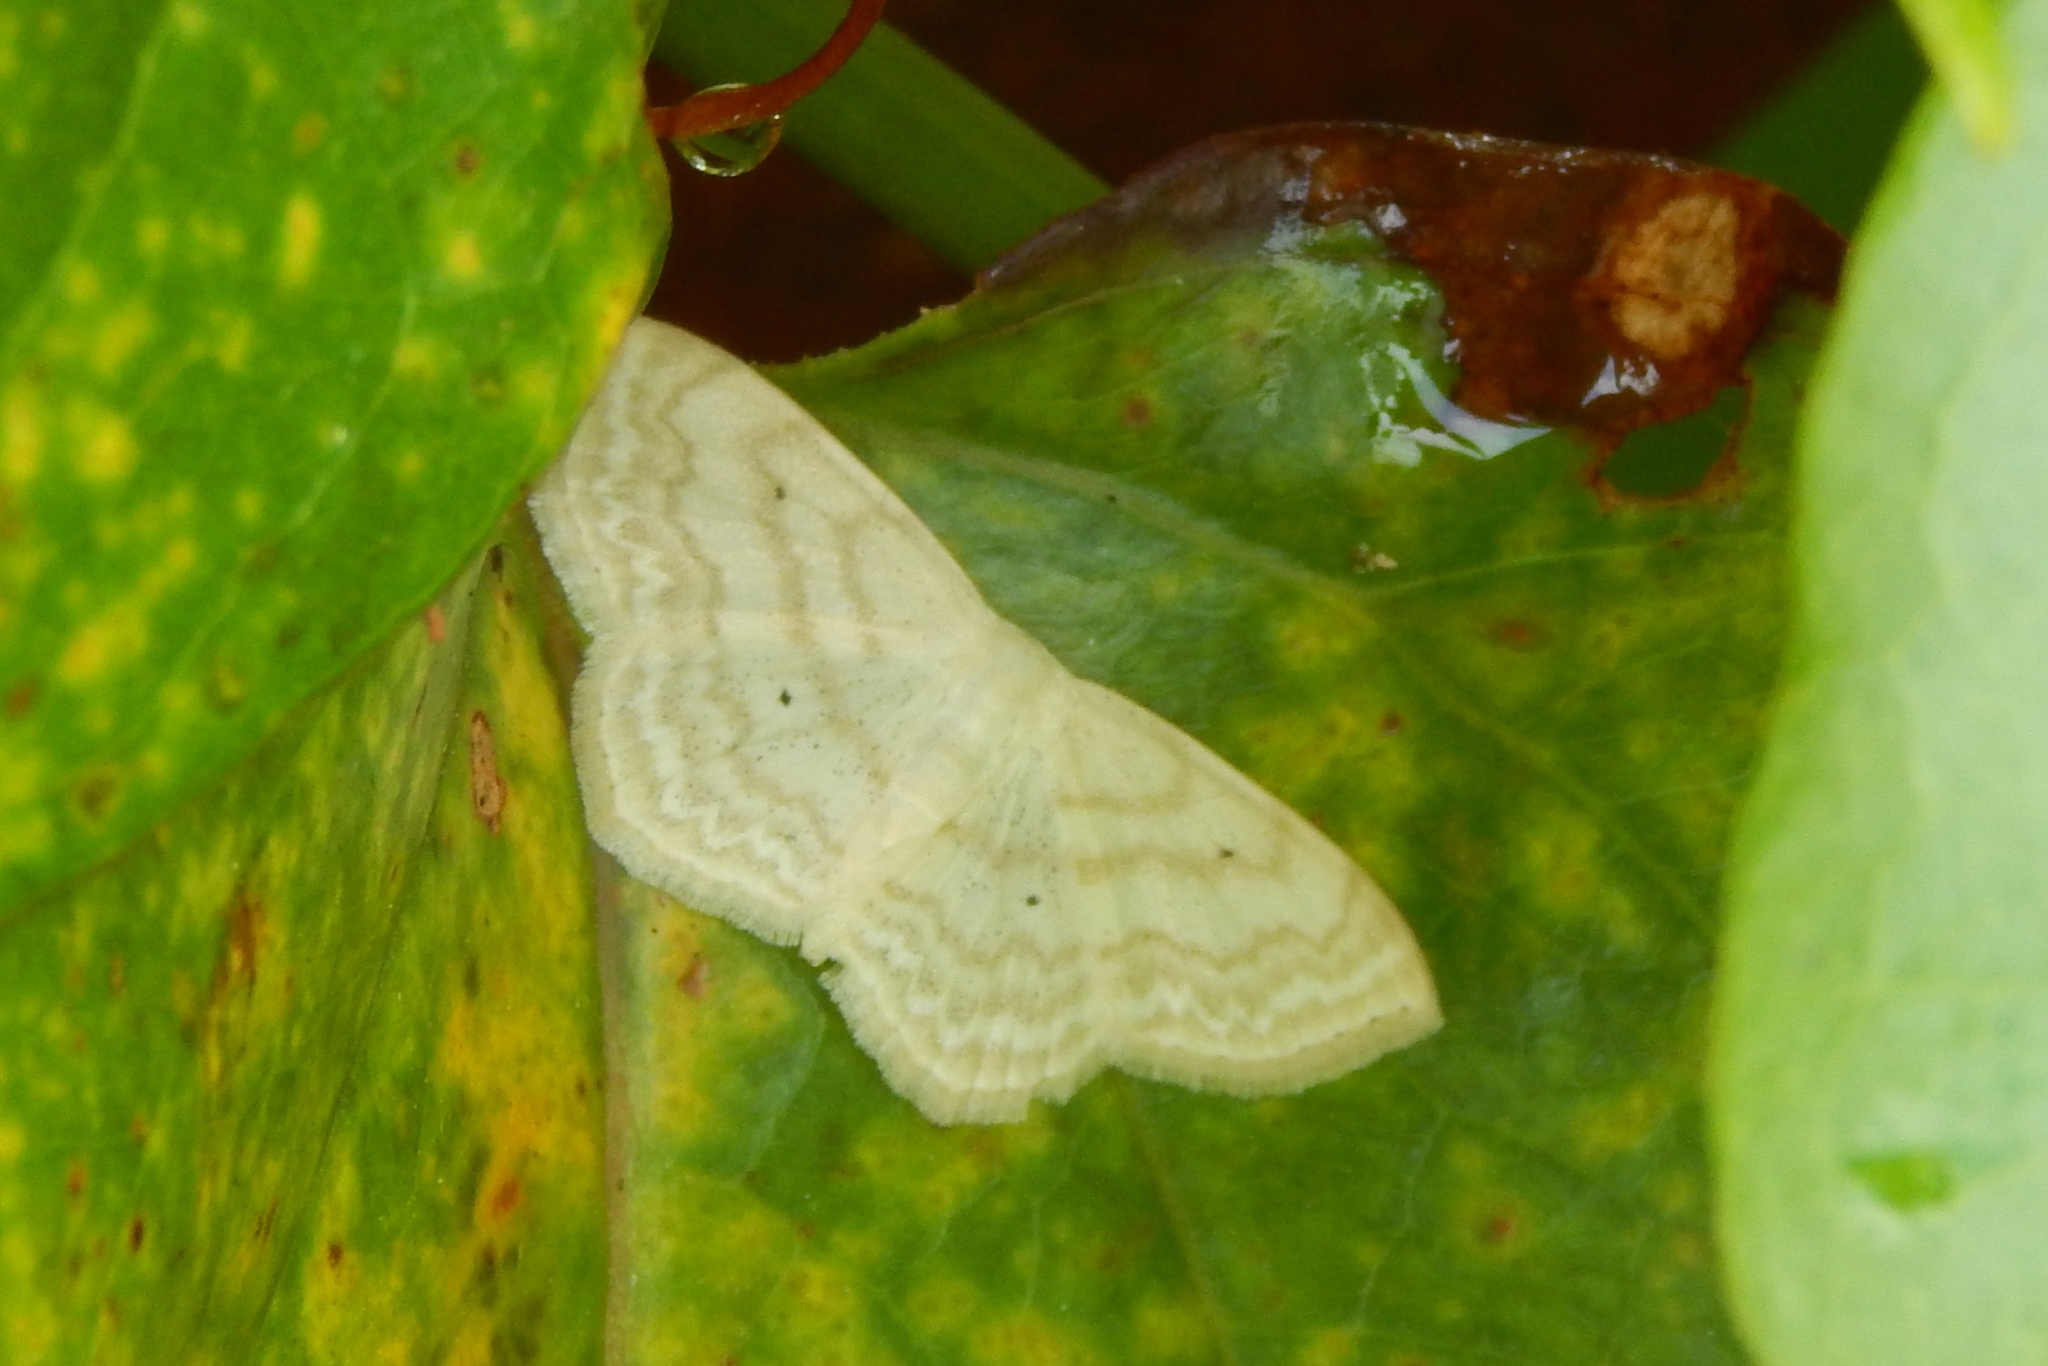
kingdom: Animalia
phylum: Arthropoda
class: Insecta
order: Lepidoptera
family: Geometridae
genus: Scopula
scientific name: Scopula limboundata
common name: Large lace border
